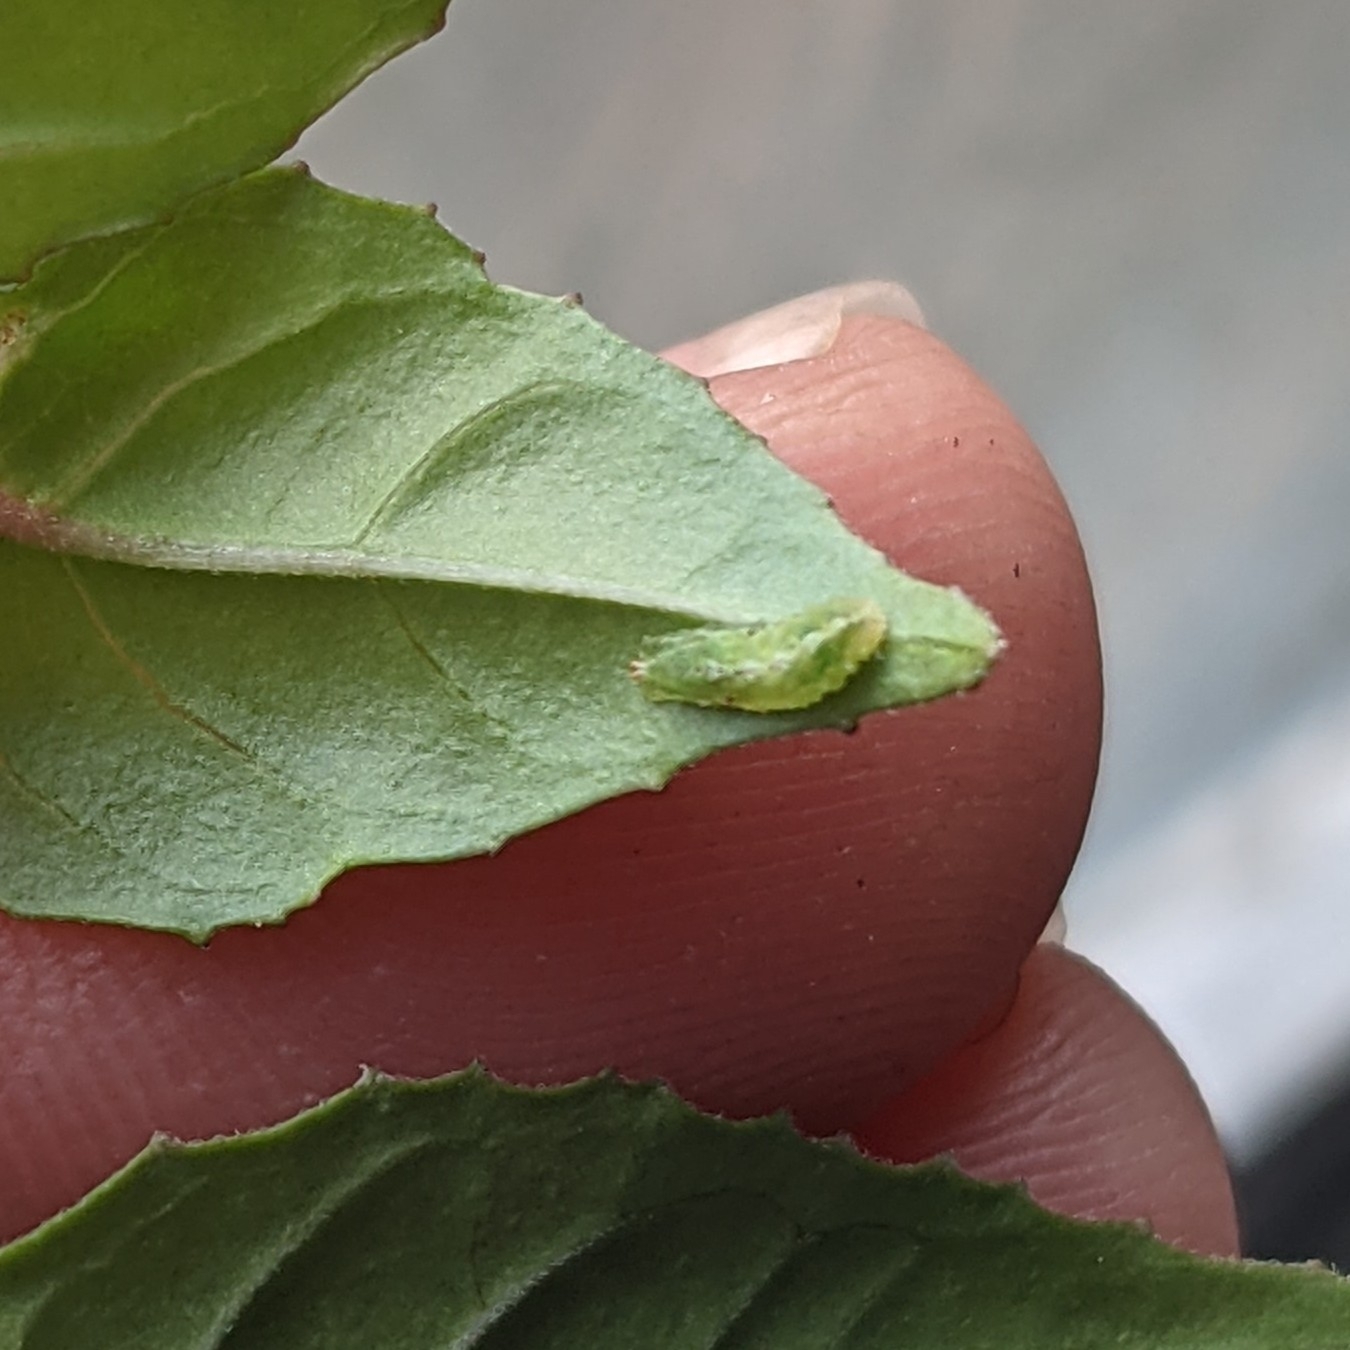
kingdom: Animalia
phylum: Arthropoda
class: Insecta
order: Diptera
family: Syrphidae
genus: Platycheirus
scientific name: Platycheirus
